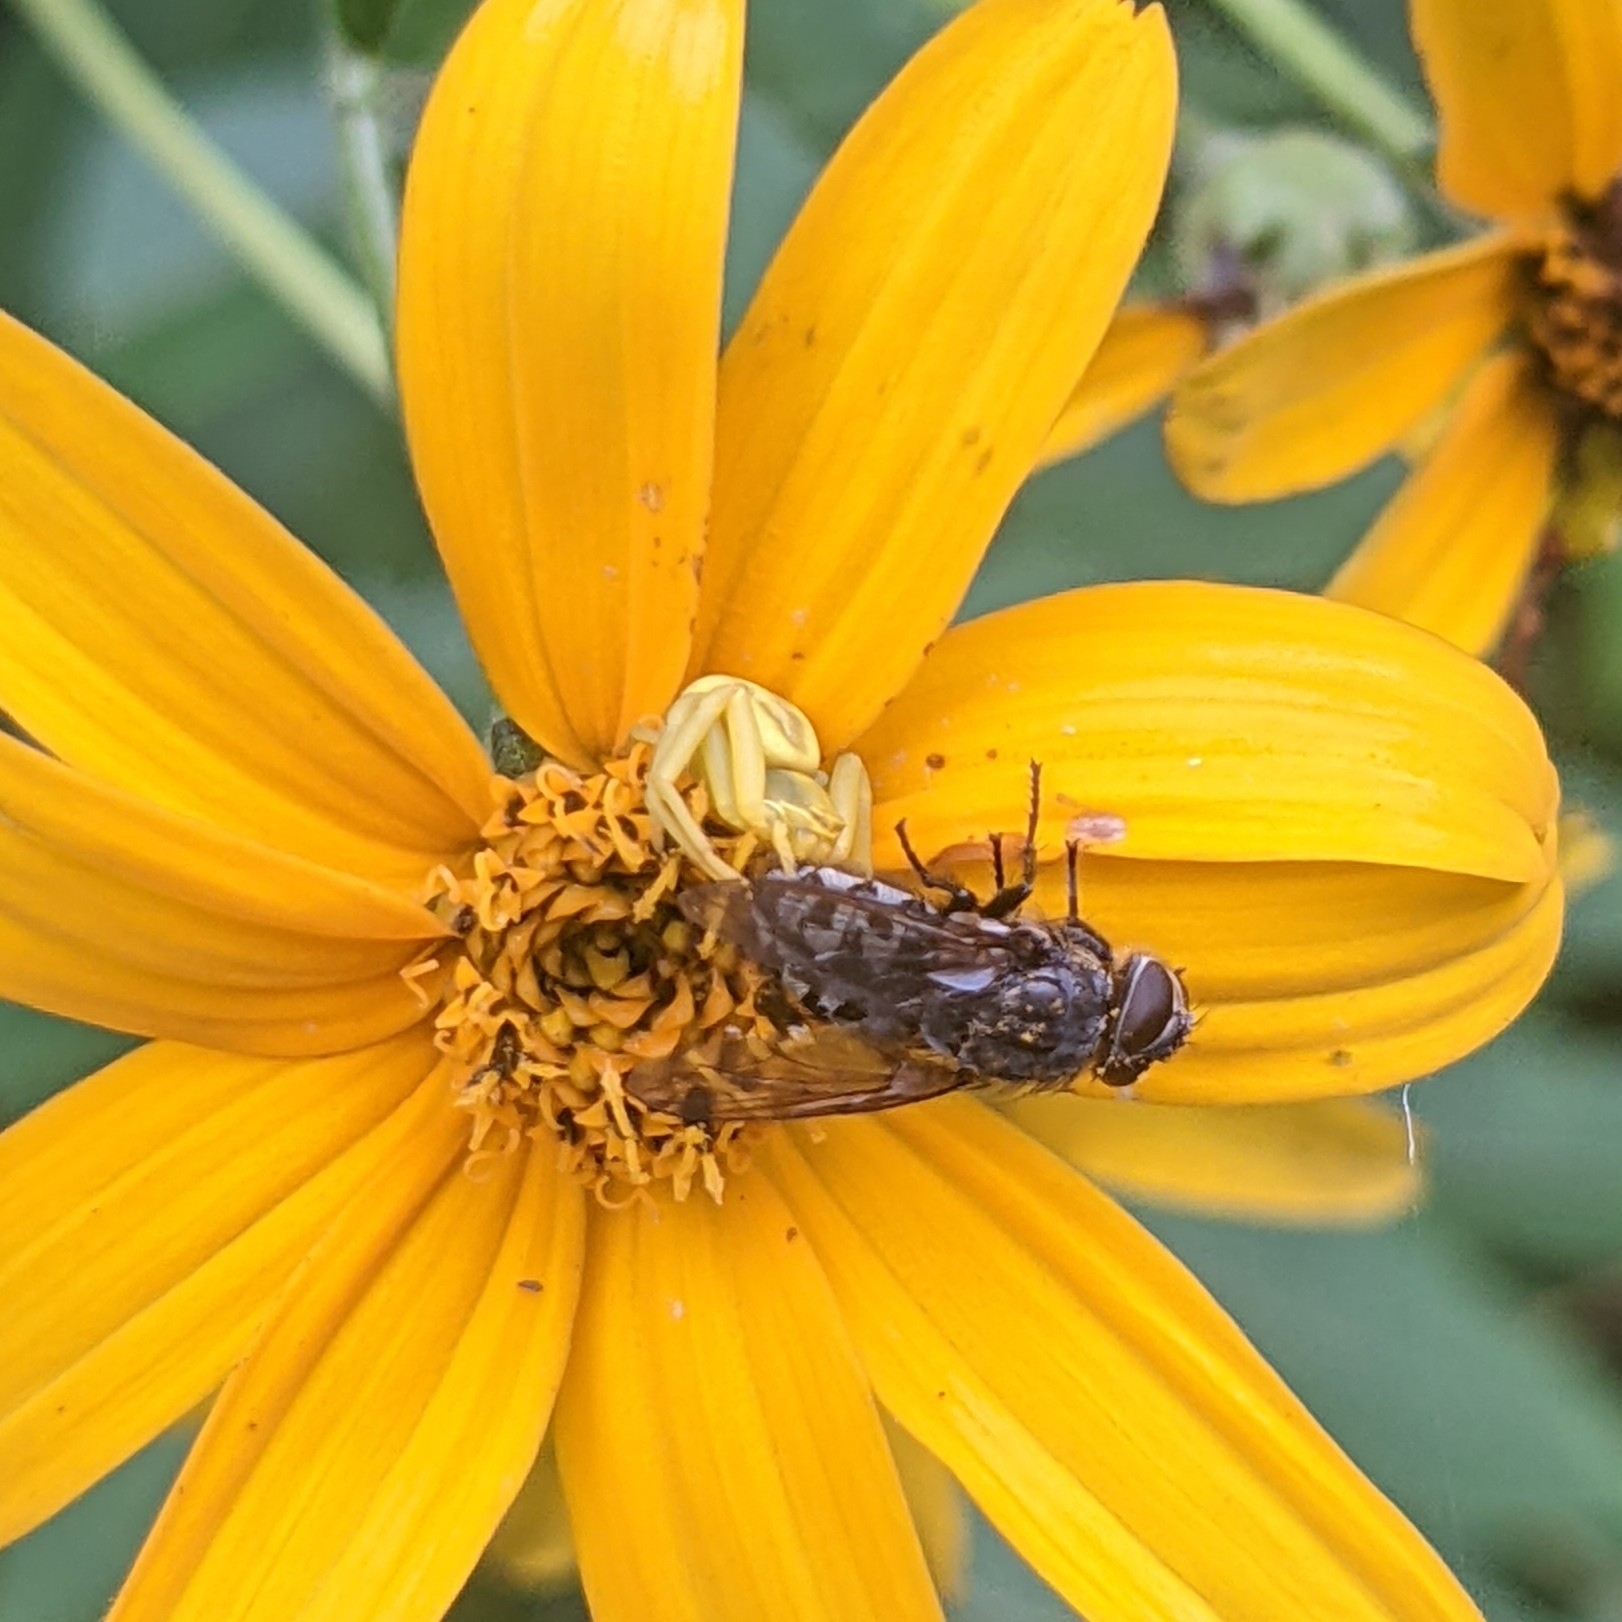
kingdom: Animalia
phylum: Arthropoda
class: Arachnida
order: Araneae
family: Thomisidae
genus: Misumenoides
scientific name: Misumenoides formosipes
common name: White-banded crab spider
